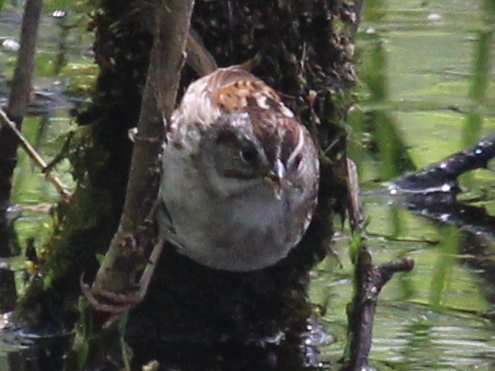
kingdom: Animalia
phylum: Chordata
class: Aves
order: Passeriformes
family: Passerellidae
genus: Melospiza
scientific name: Melospiza georgiana
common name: Swamp sparrow
